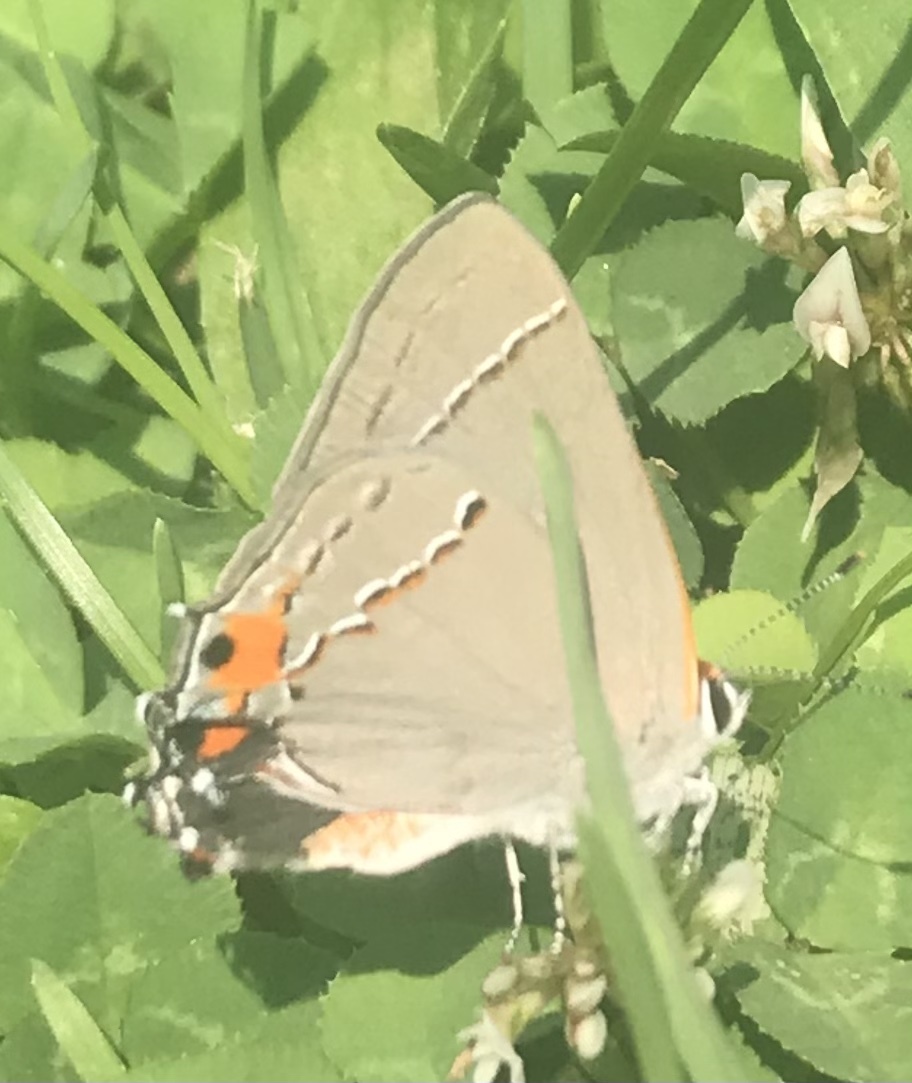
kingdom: Animalia
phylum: Arthropoda
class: Insecta
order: Lepidoptera
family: Lycaenidae
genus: Strymon
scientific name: Strymon melinus
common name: Gray hairstreak
